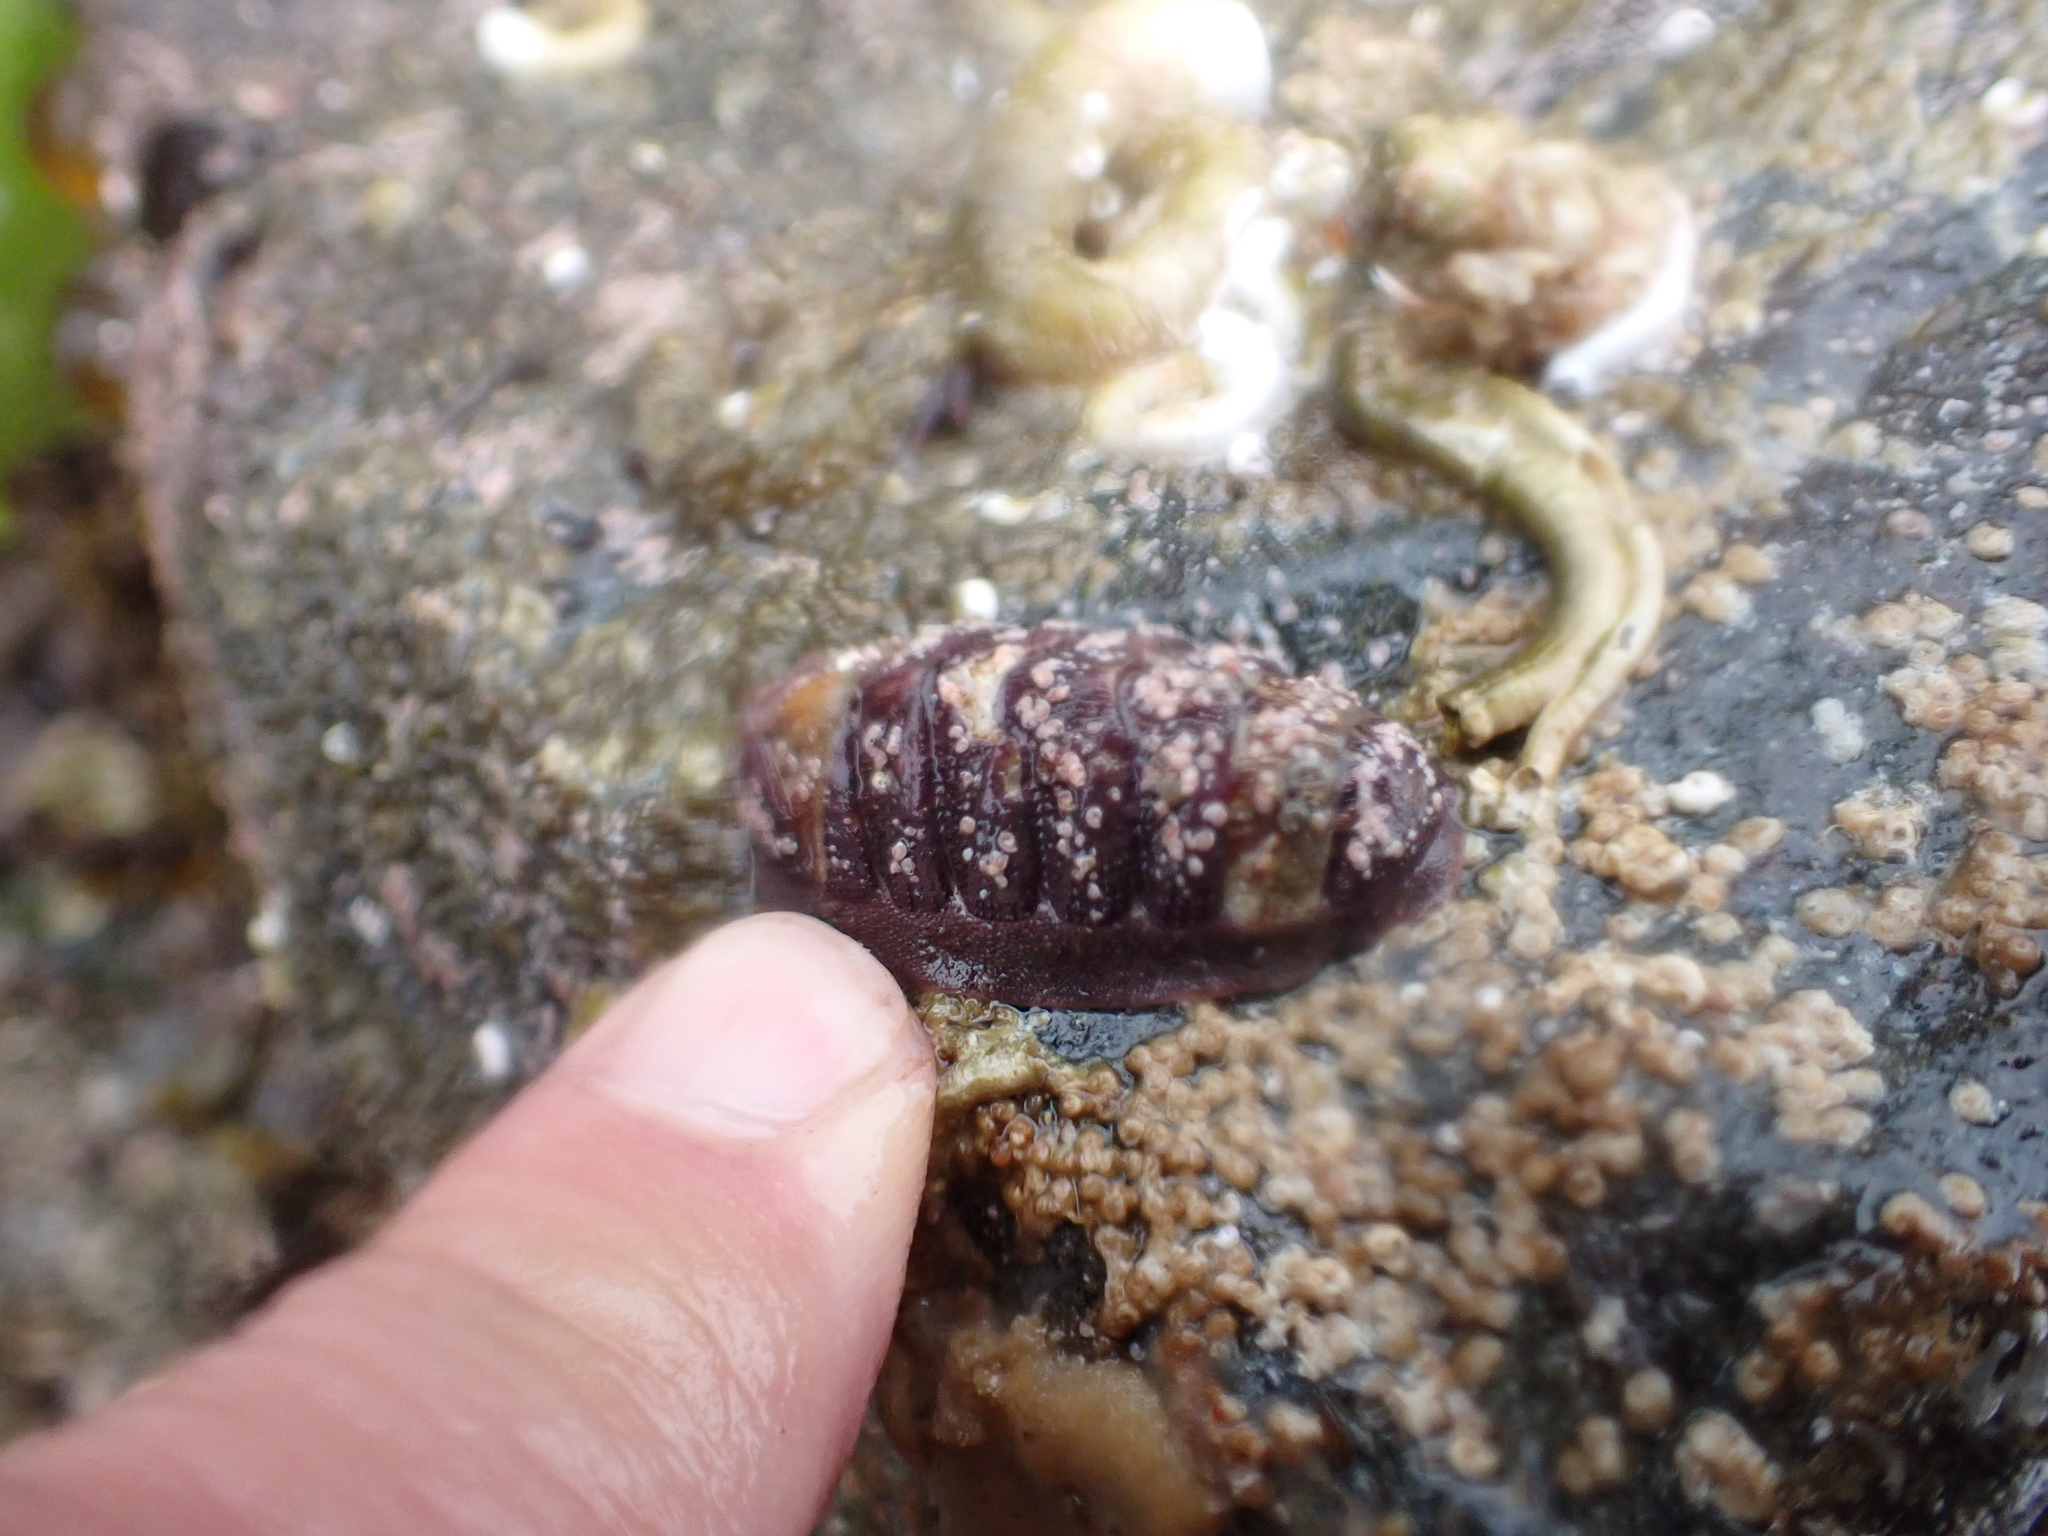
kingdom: Animalia
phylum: Mollusca
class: Polyplacophora
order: Chitonida
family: Ischnochitonidae
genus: Lepidozona
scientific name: Lepidozona mertensii
